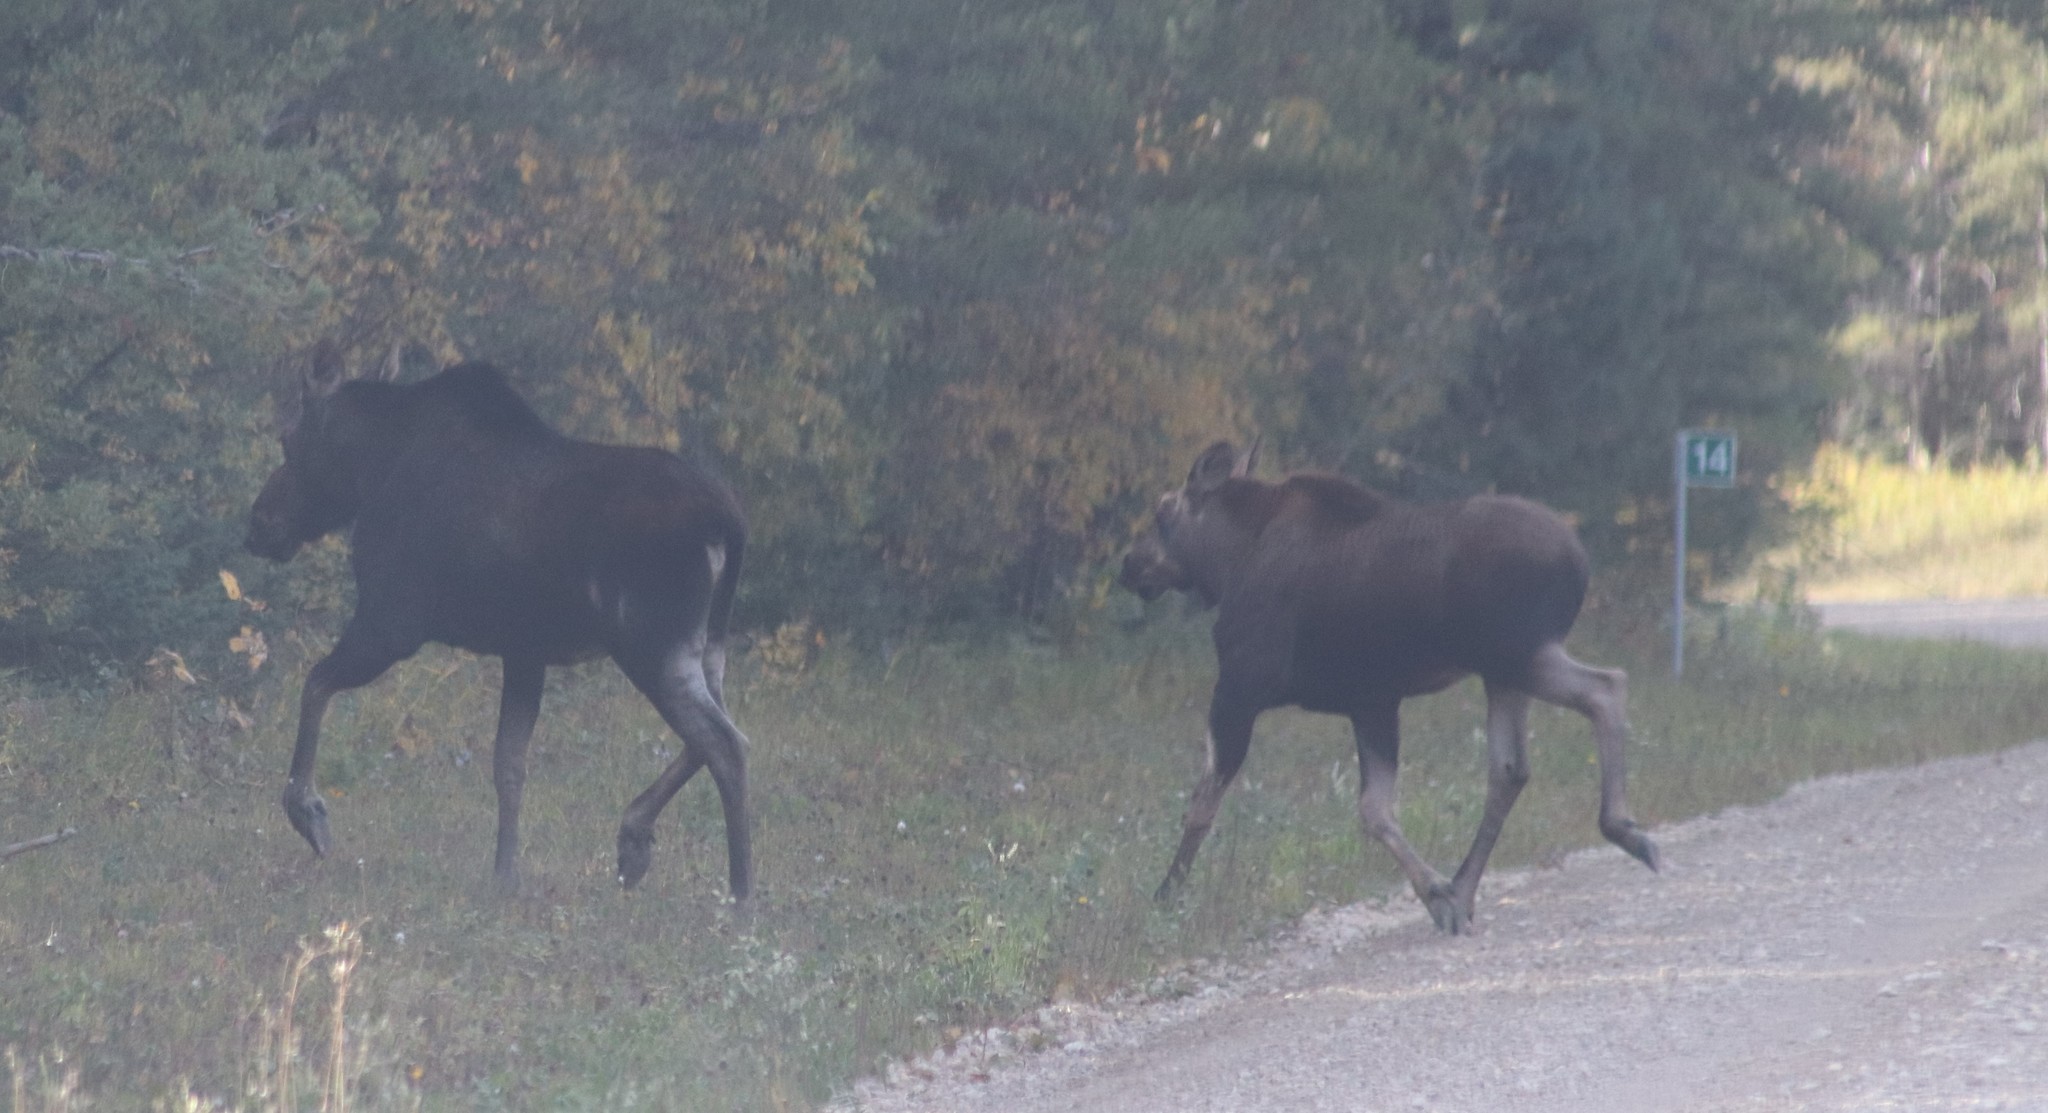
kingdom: Animalia
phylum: Chordata
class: Mammalia
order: Artiodactyla
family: Cervidae
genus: Alces
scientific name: Alces alces
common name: Moose
